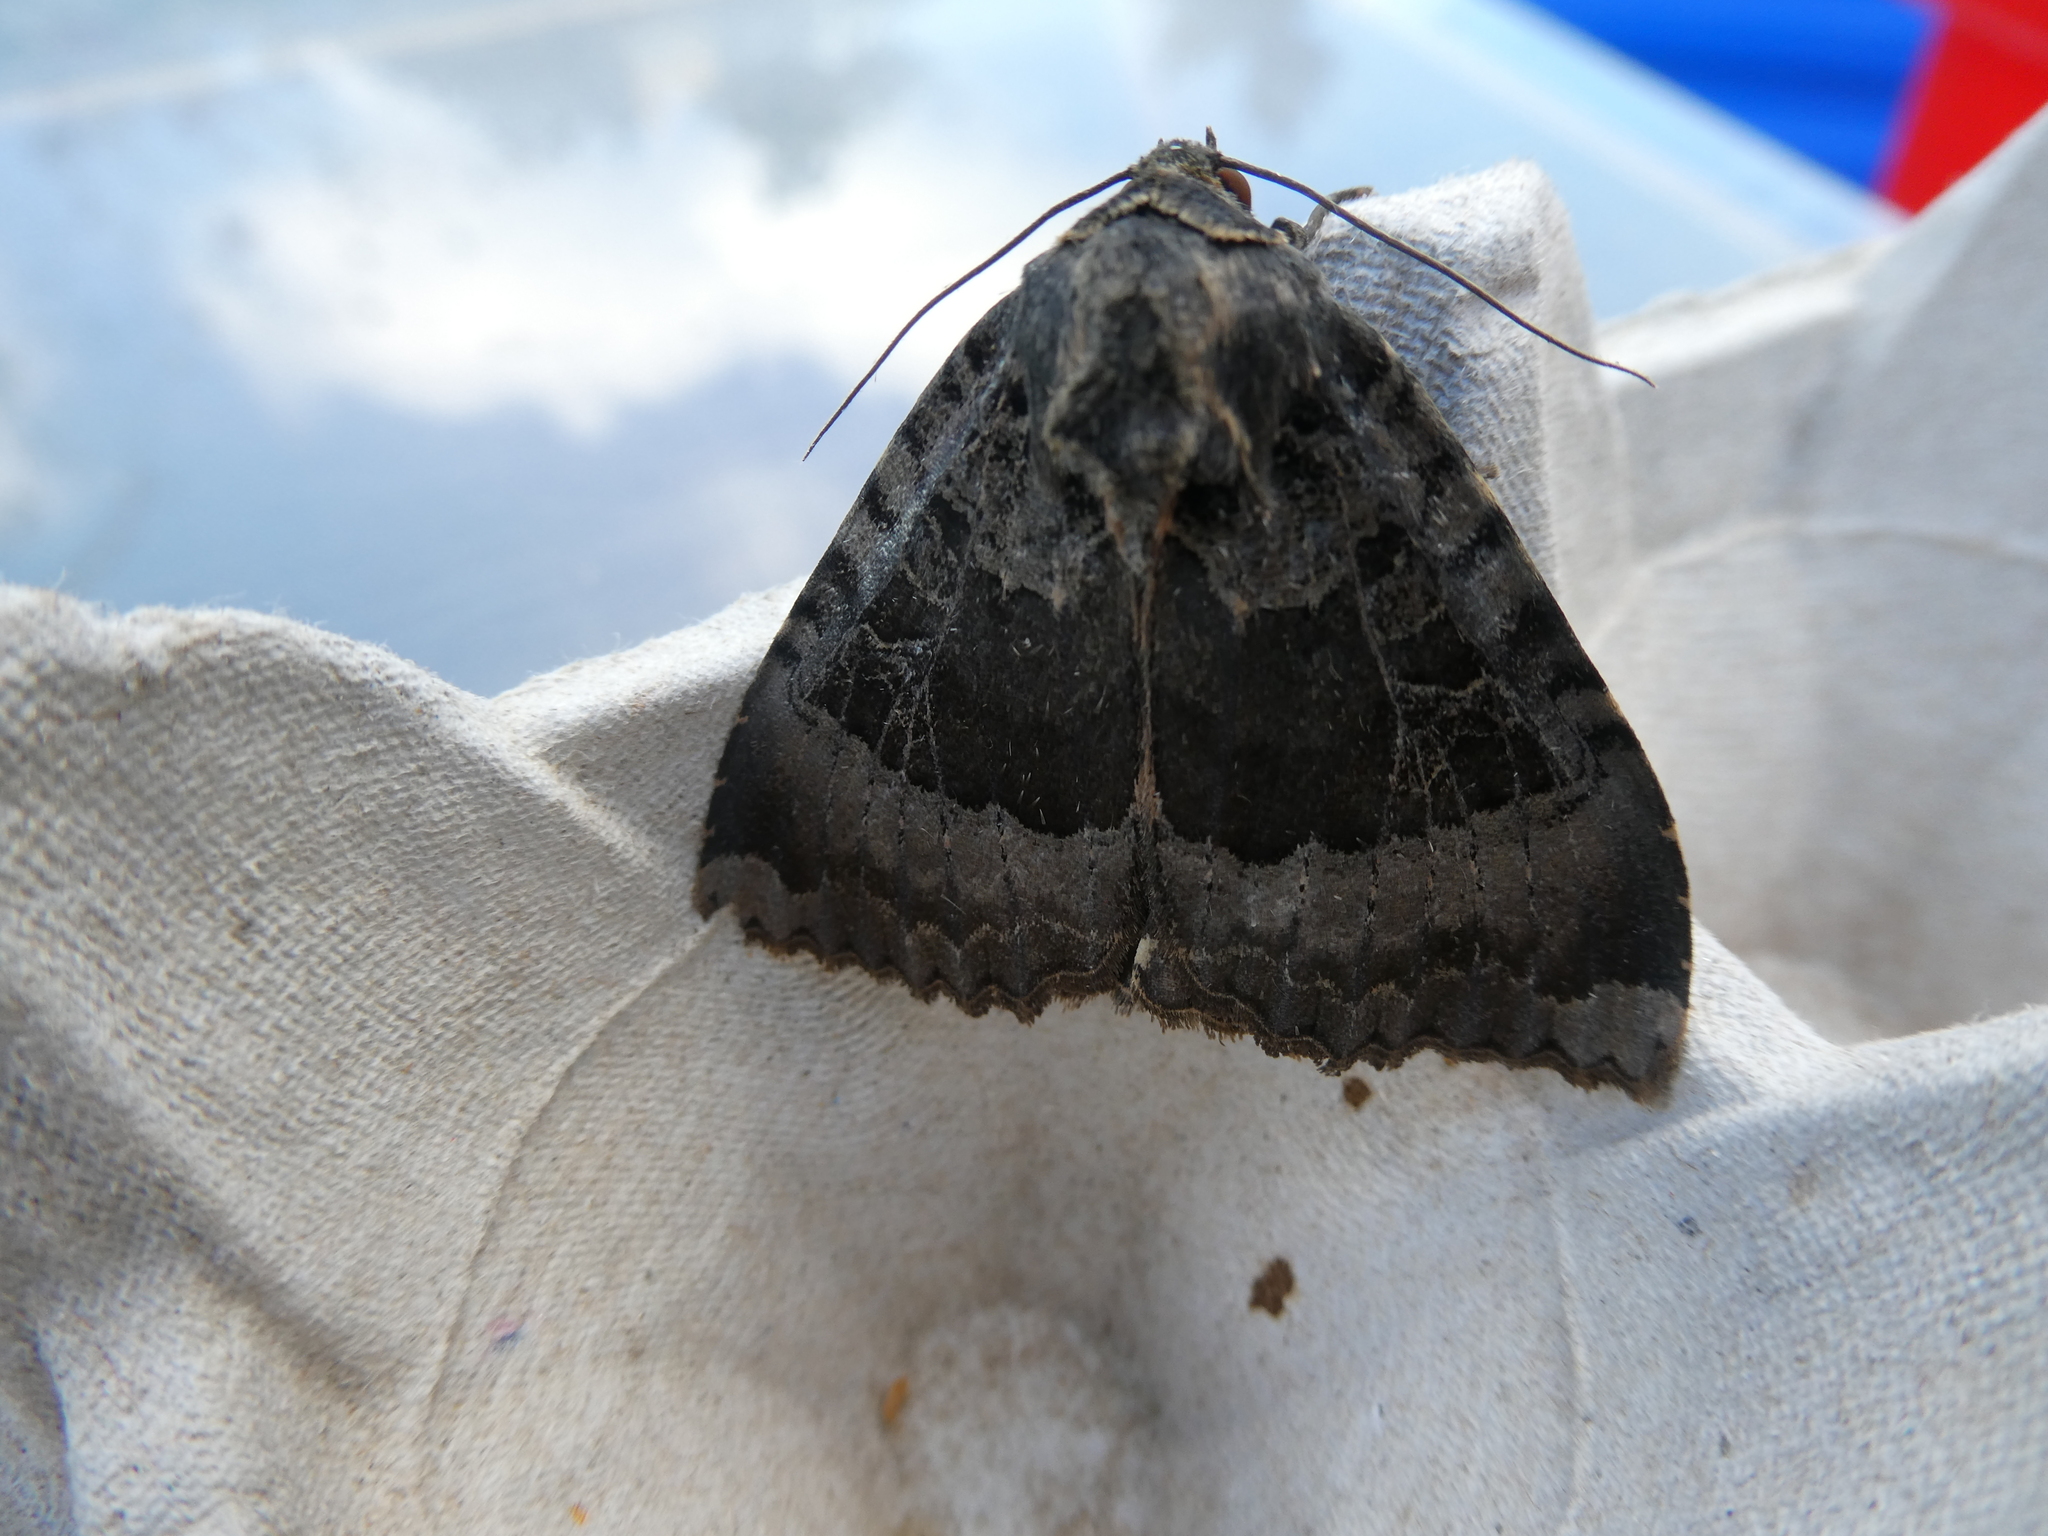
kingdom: Animalia
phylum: Arthropoda
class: Insecta
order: Lepidoptera
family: Noctuidae
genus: Mormo
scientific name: Mormo maura
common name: Old lady
